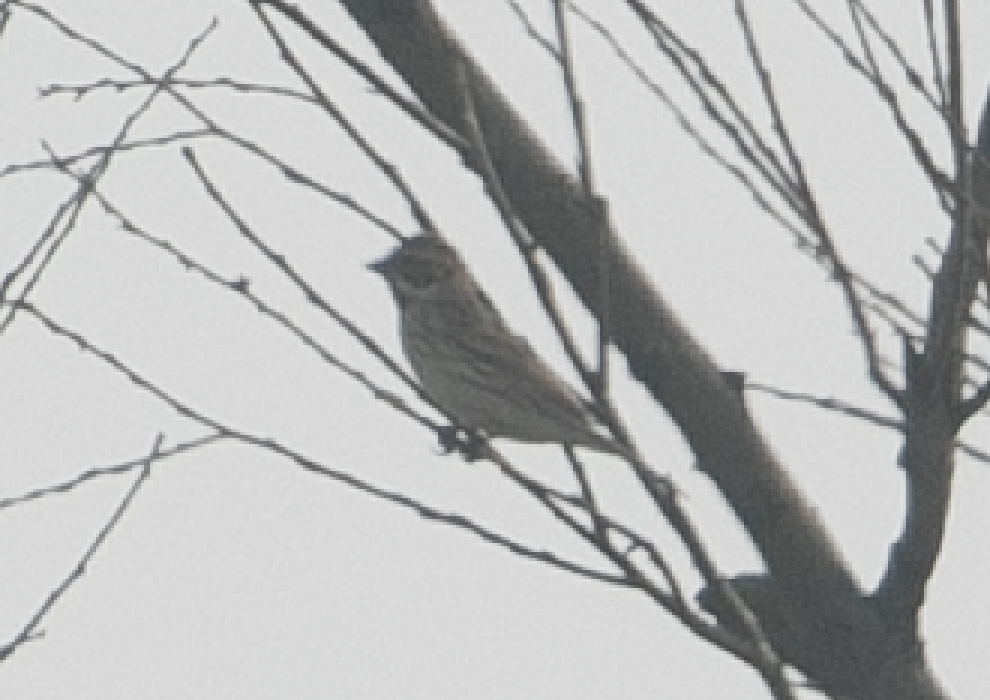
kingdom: Animalia
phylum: Chordata
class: Aves
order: Passeriformes
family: Emberizidae
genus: Emberiza
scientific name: Emberiza schoeniclus
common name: Reed bunting
